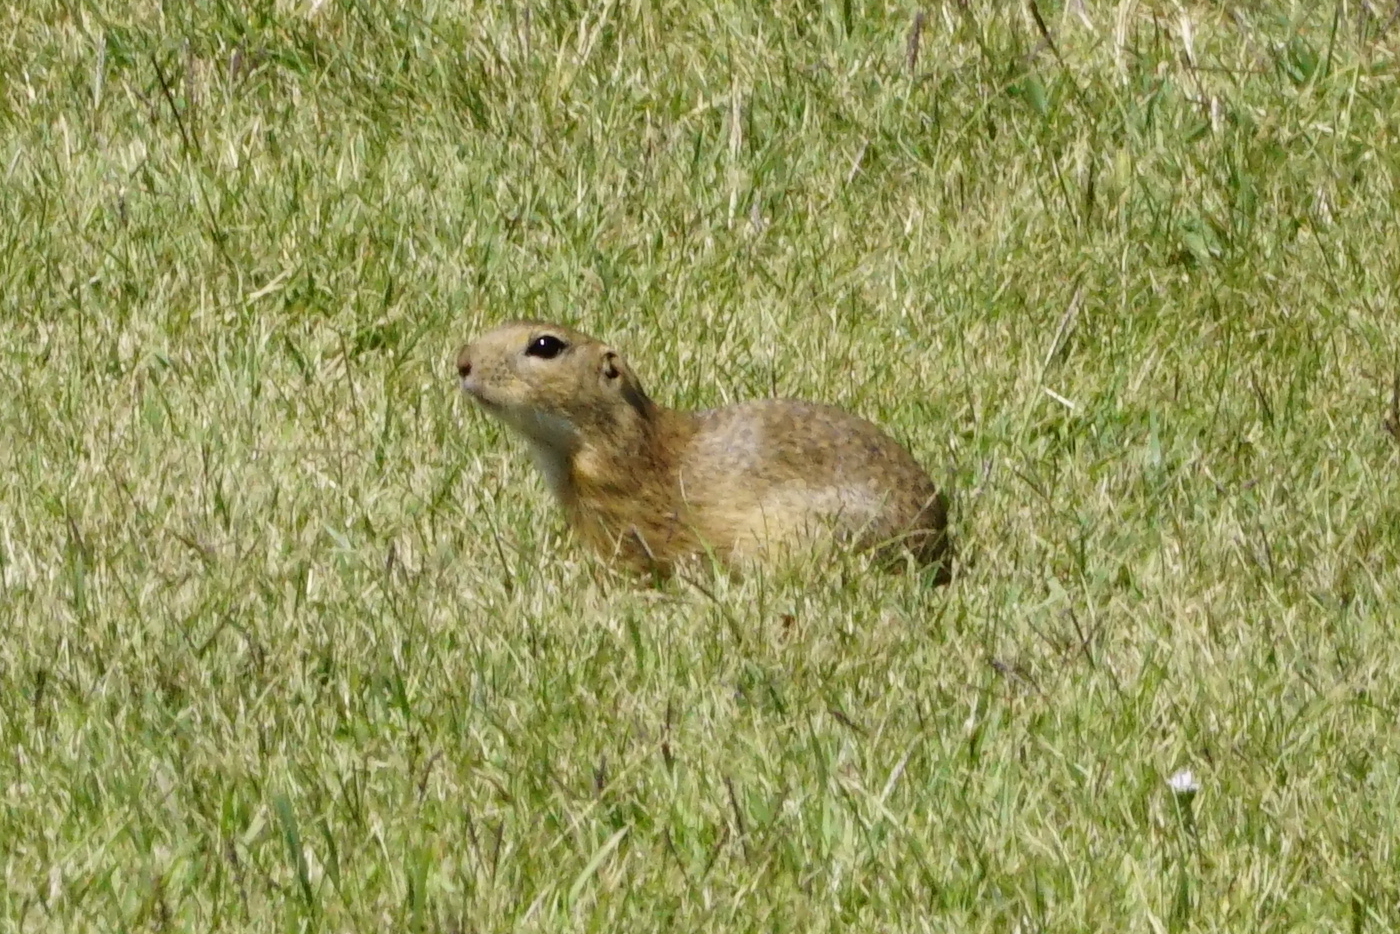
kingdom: Animalia
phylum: Chordata
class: Mammalia
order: Rodentia
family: Sciuridae
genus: Spermophilus
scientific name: Spermophilus citellus
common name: European ground squirrel
